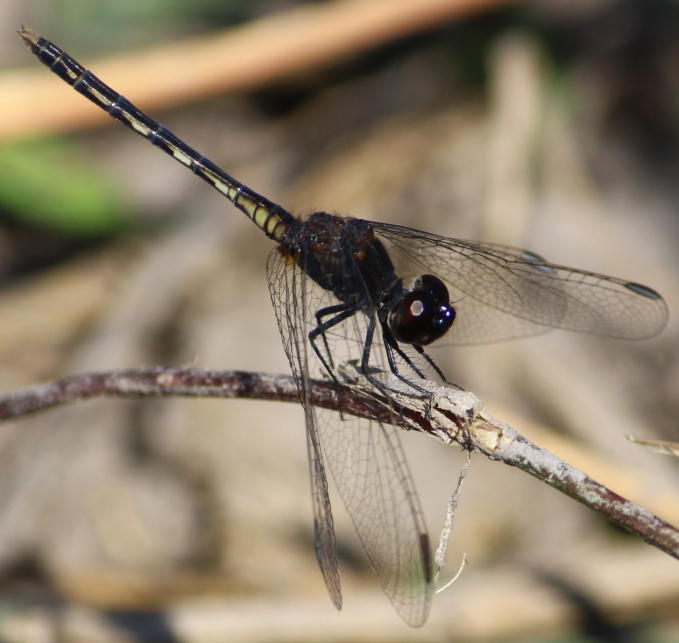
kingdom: Animalia
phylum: Arthropoda
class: Insecta
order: Odonata
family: Libellulidae
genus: Diplacodes
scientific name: Diplacodes lefebvrii
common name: Black percher
